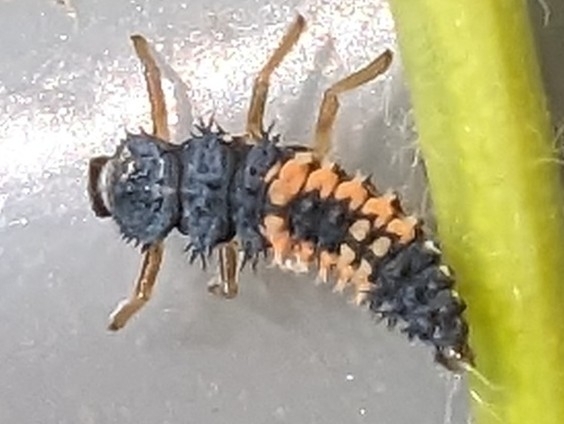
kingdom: Animalia
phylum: Arthropoda
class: Insecta
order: Coleoptera
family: Coccinellidae
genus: Harmonia
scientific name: Harmonia axyridis
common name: Harlequin ladybird
